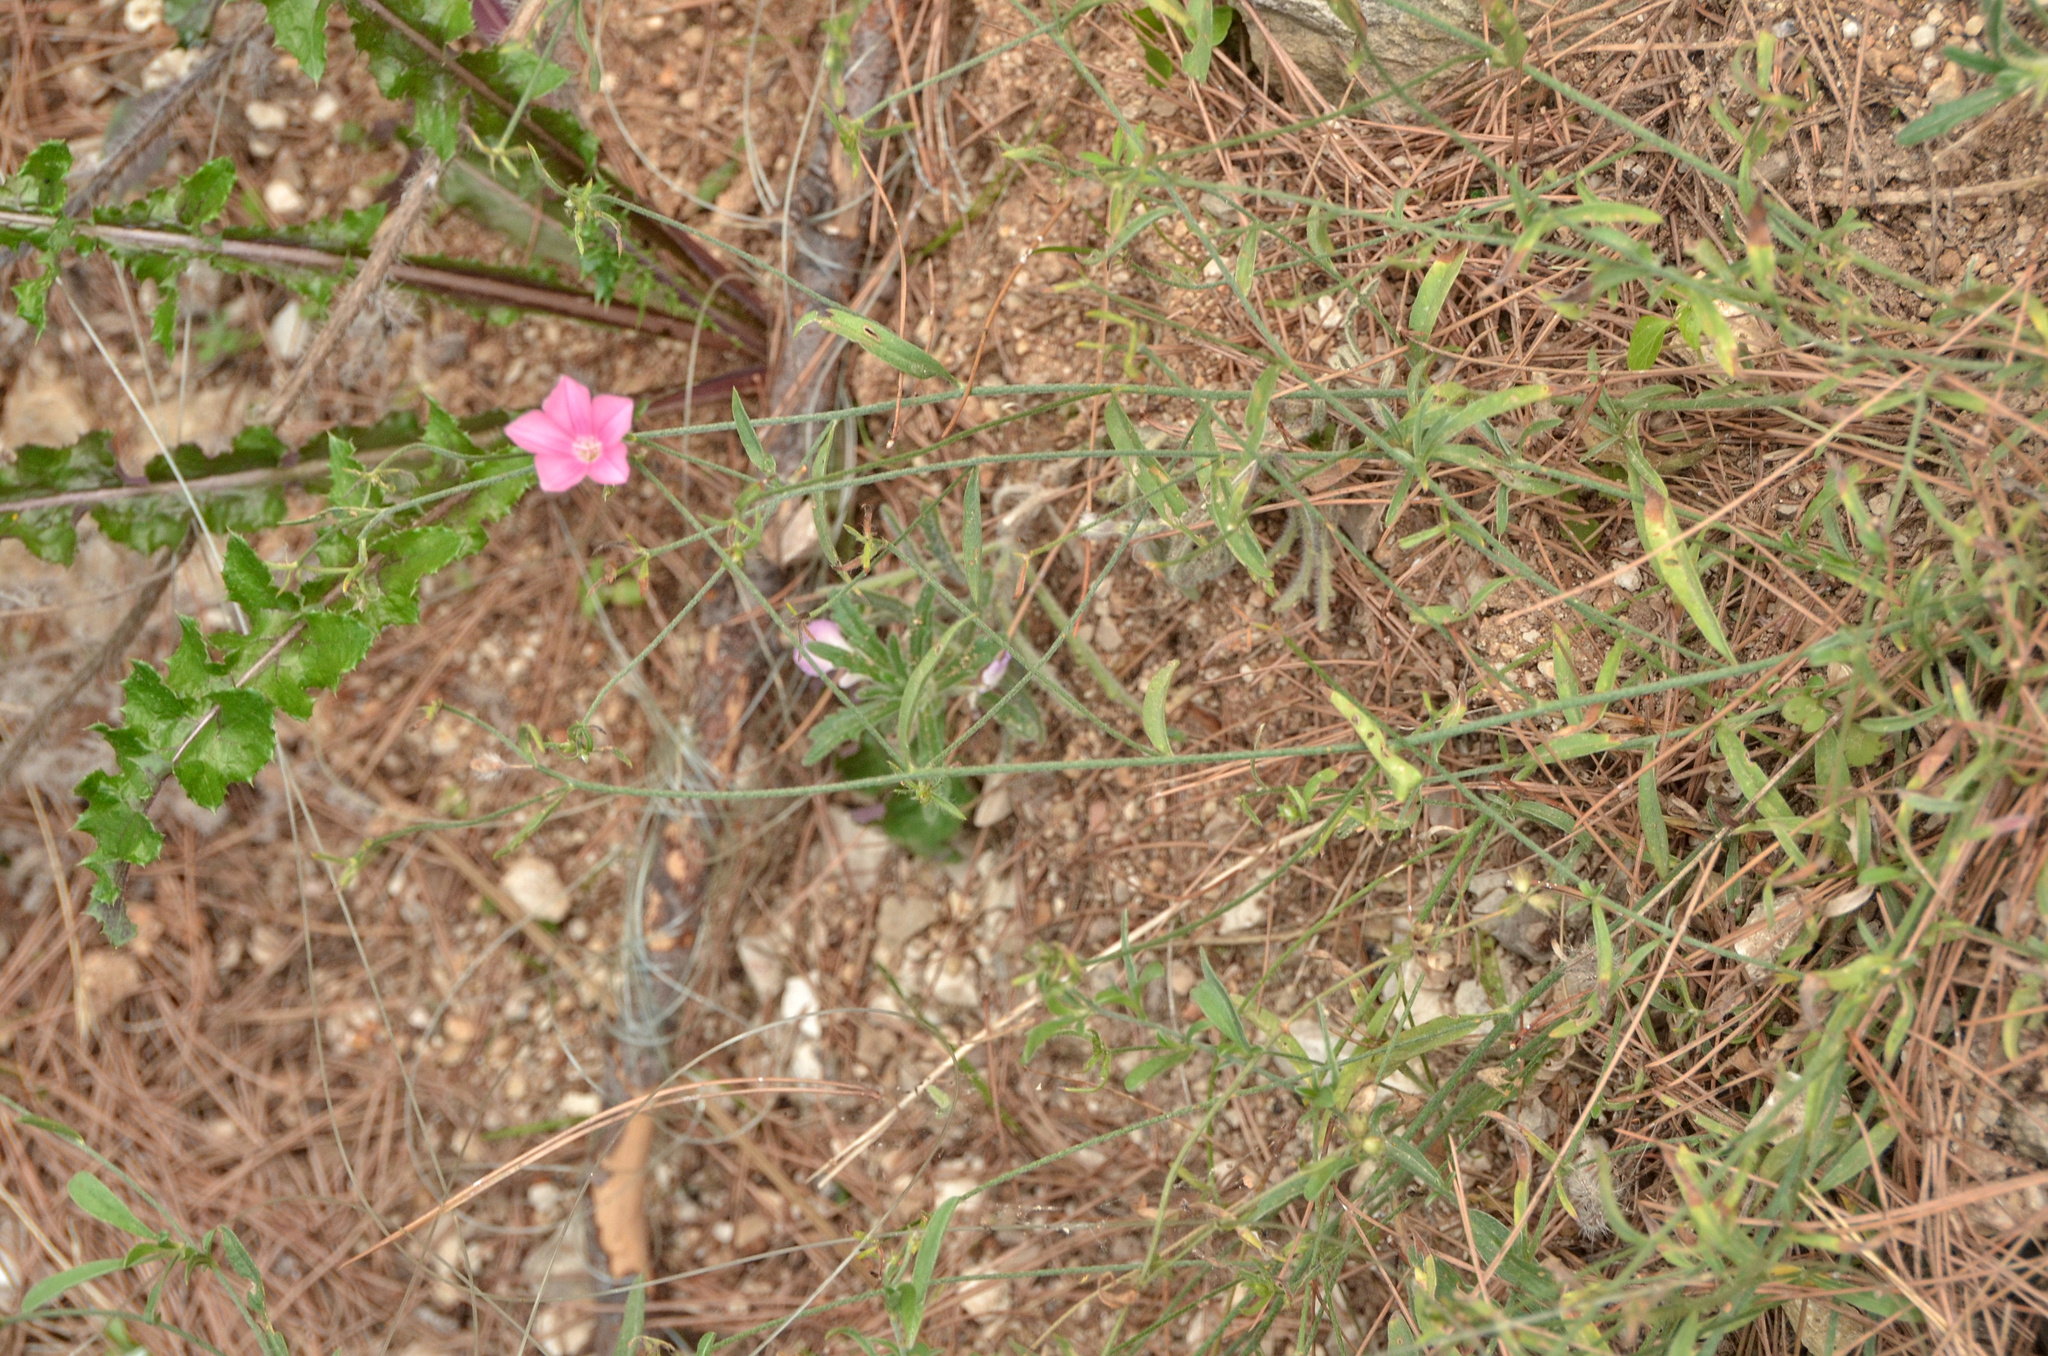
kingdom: Plantae
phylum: Tracheophyta
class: Magnoliopsida
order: Solanales
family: Convolvulaceae
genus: Convolvulus
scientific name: Convolvulus cantabrica
